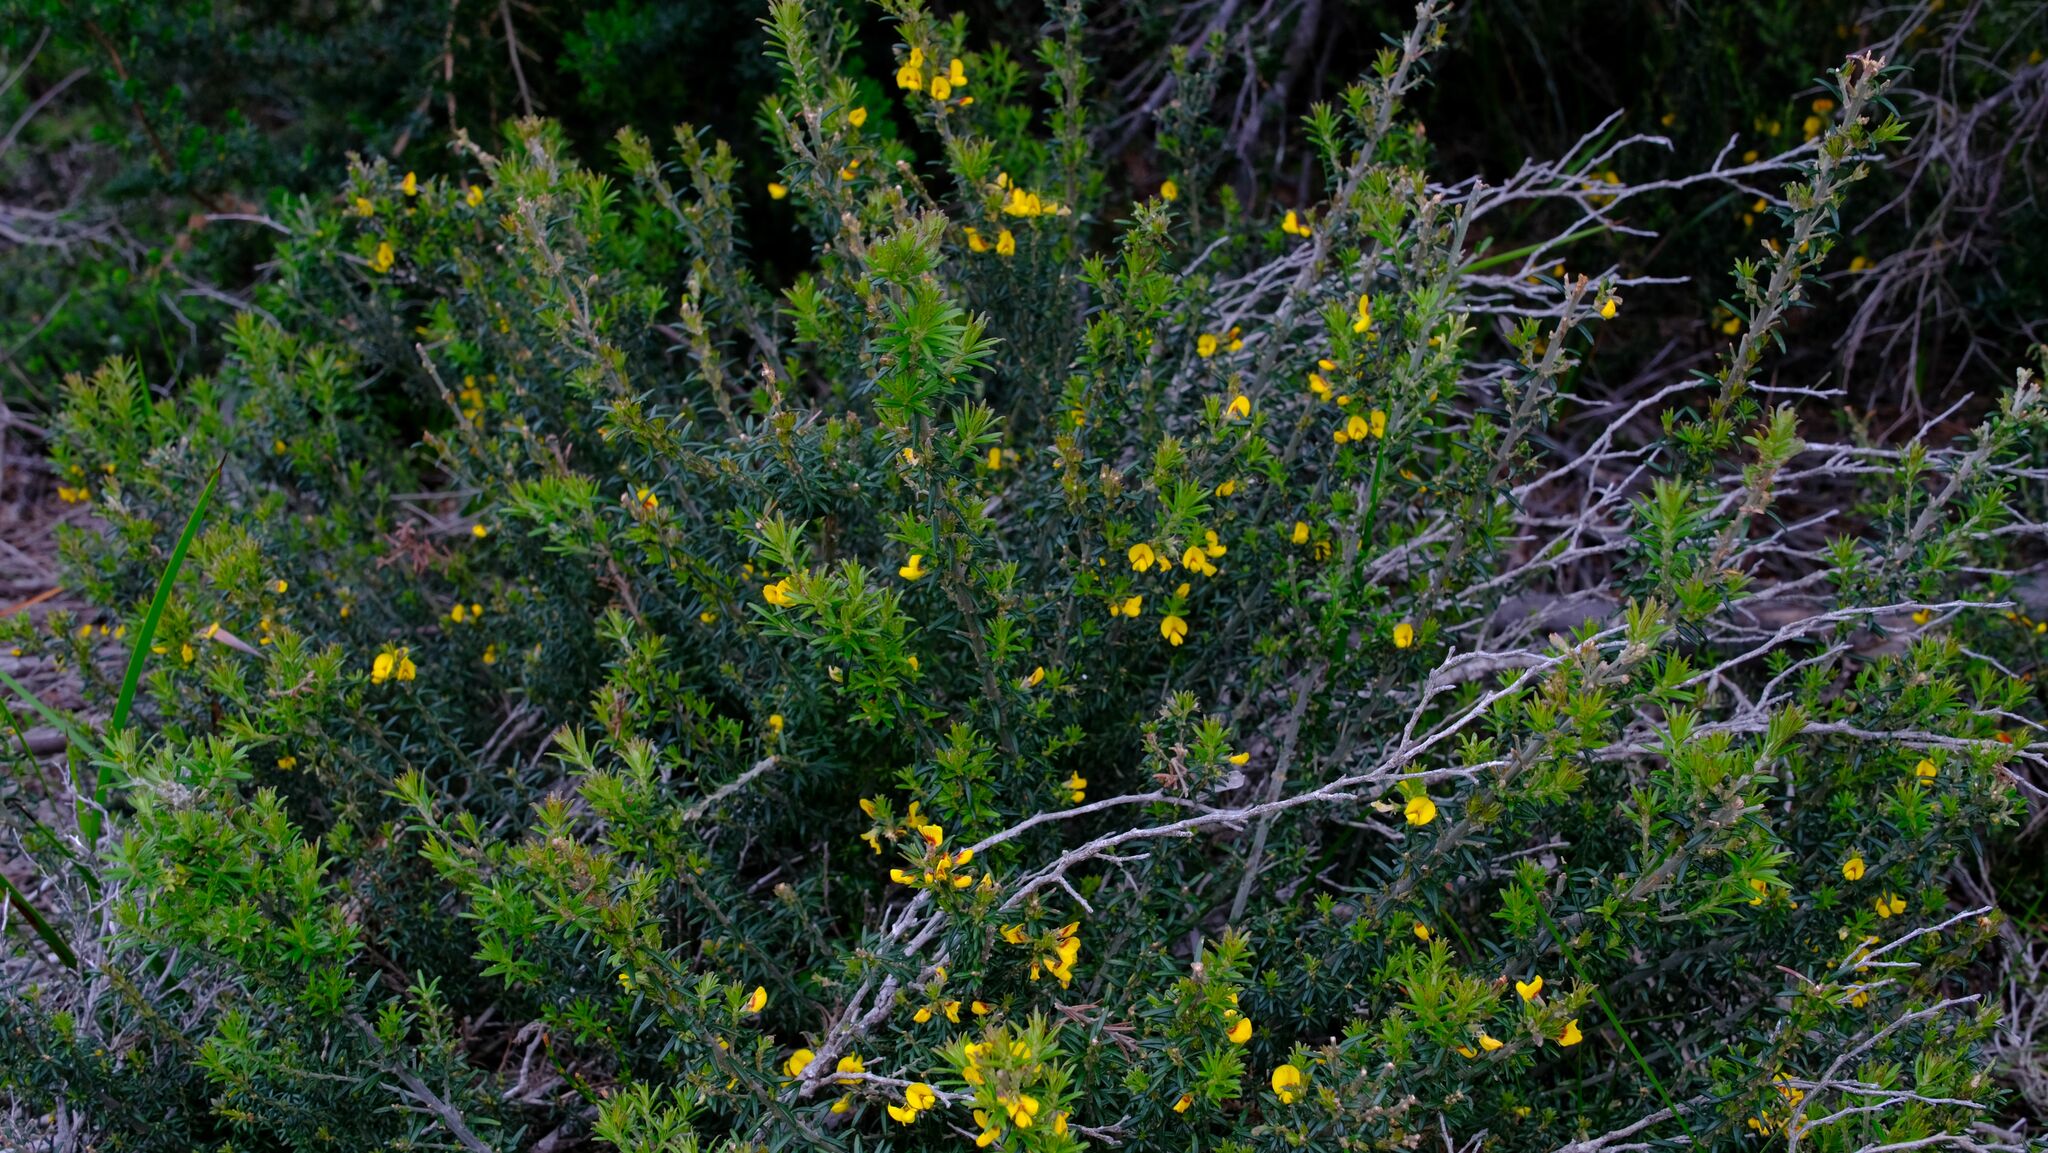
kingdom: Plantae
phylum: Tracheophyta
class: Magnoliopsida
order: Fabales
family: Fabaceae
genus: Aotus
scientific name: Aotus ericoides
